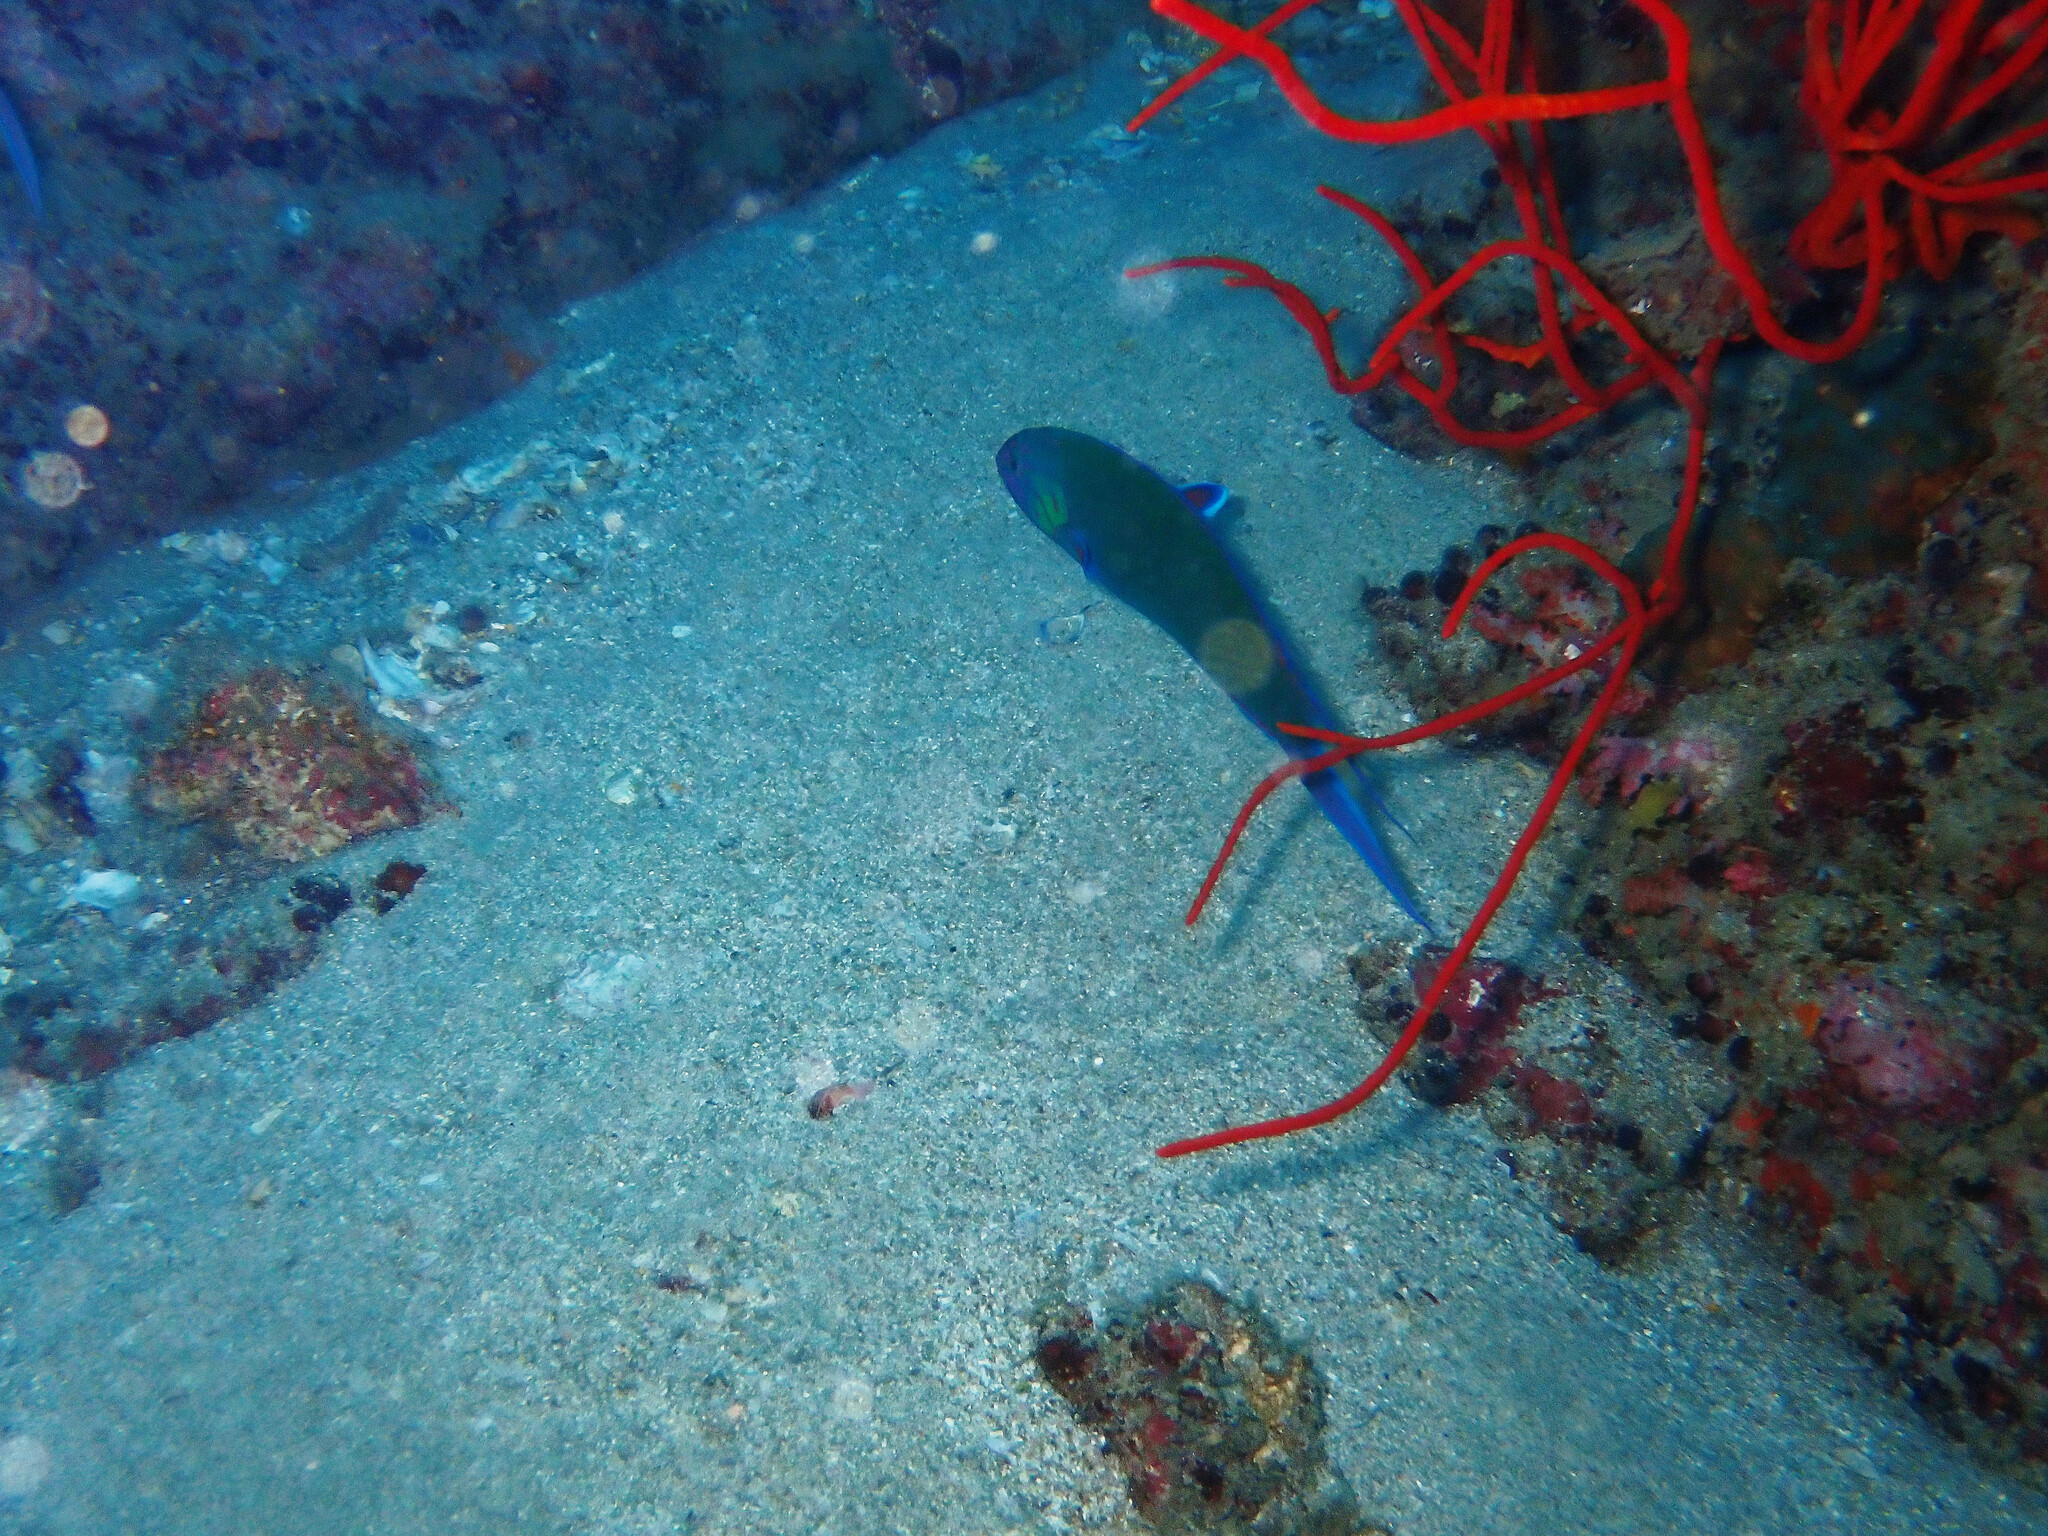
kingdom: Animalia
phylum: Chordata
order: Perciformes
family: Labridae
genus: Thalassoma
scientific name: Thalassoma lunare
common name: Blue wrasse
